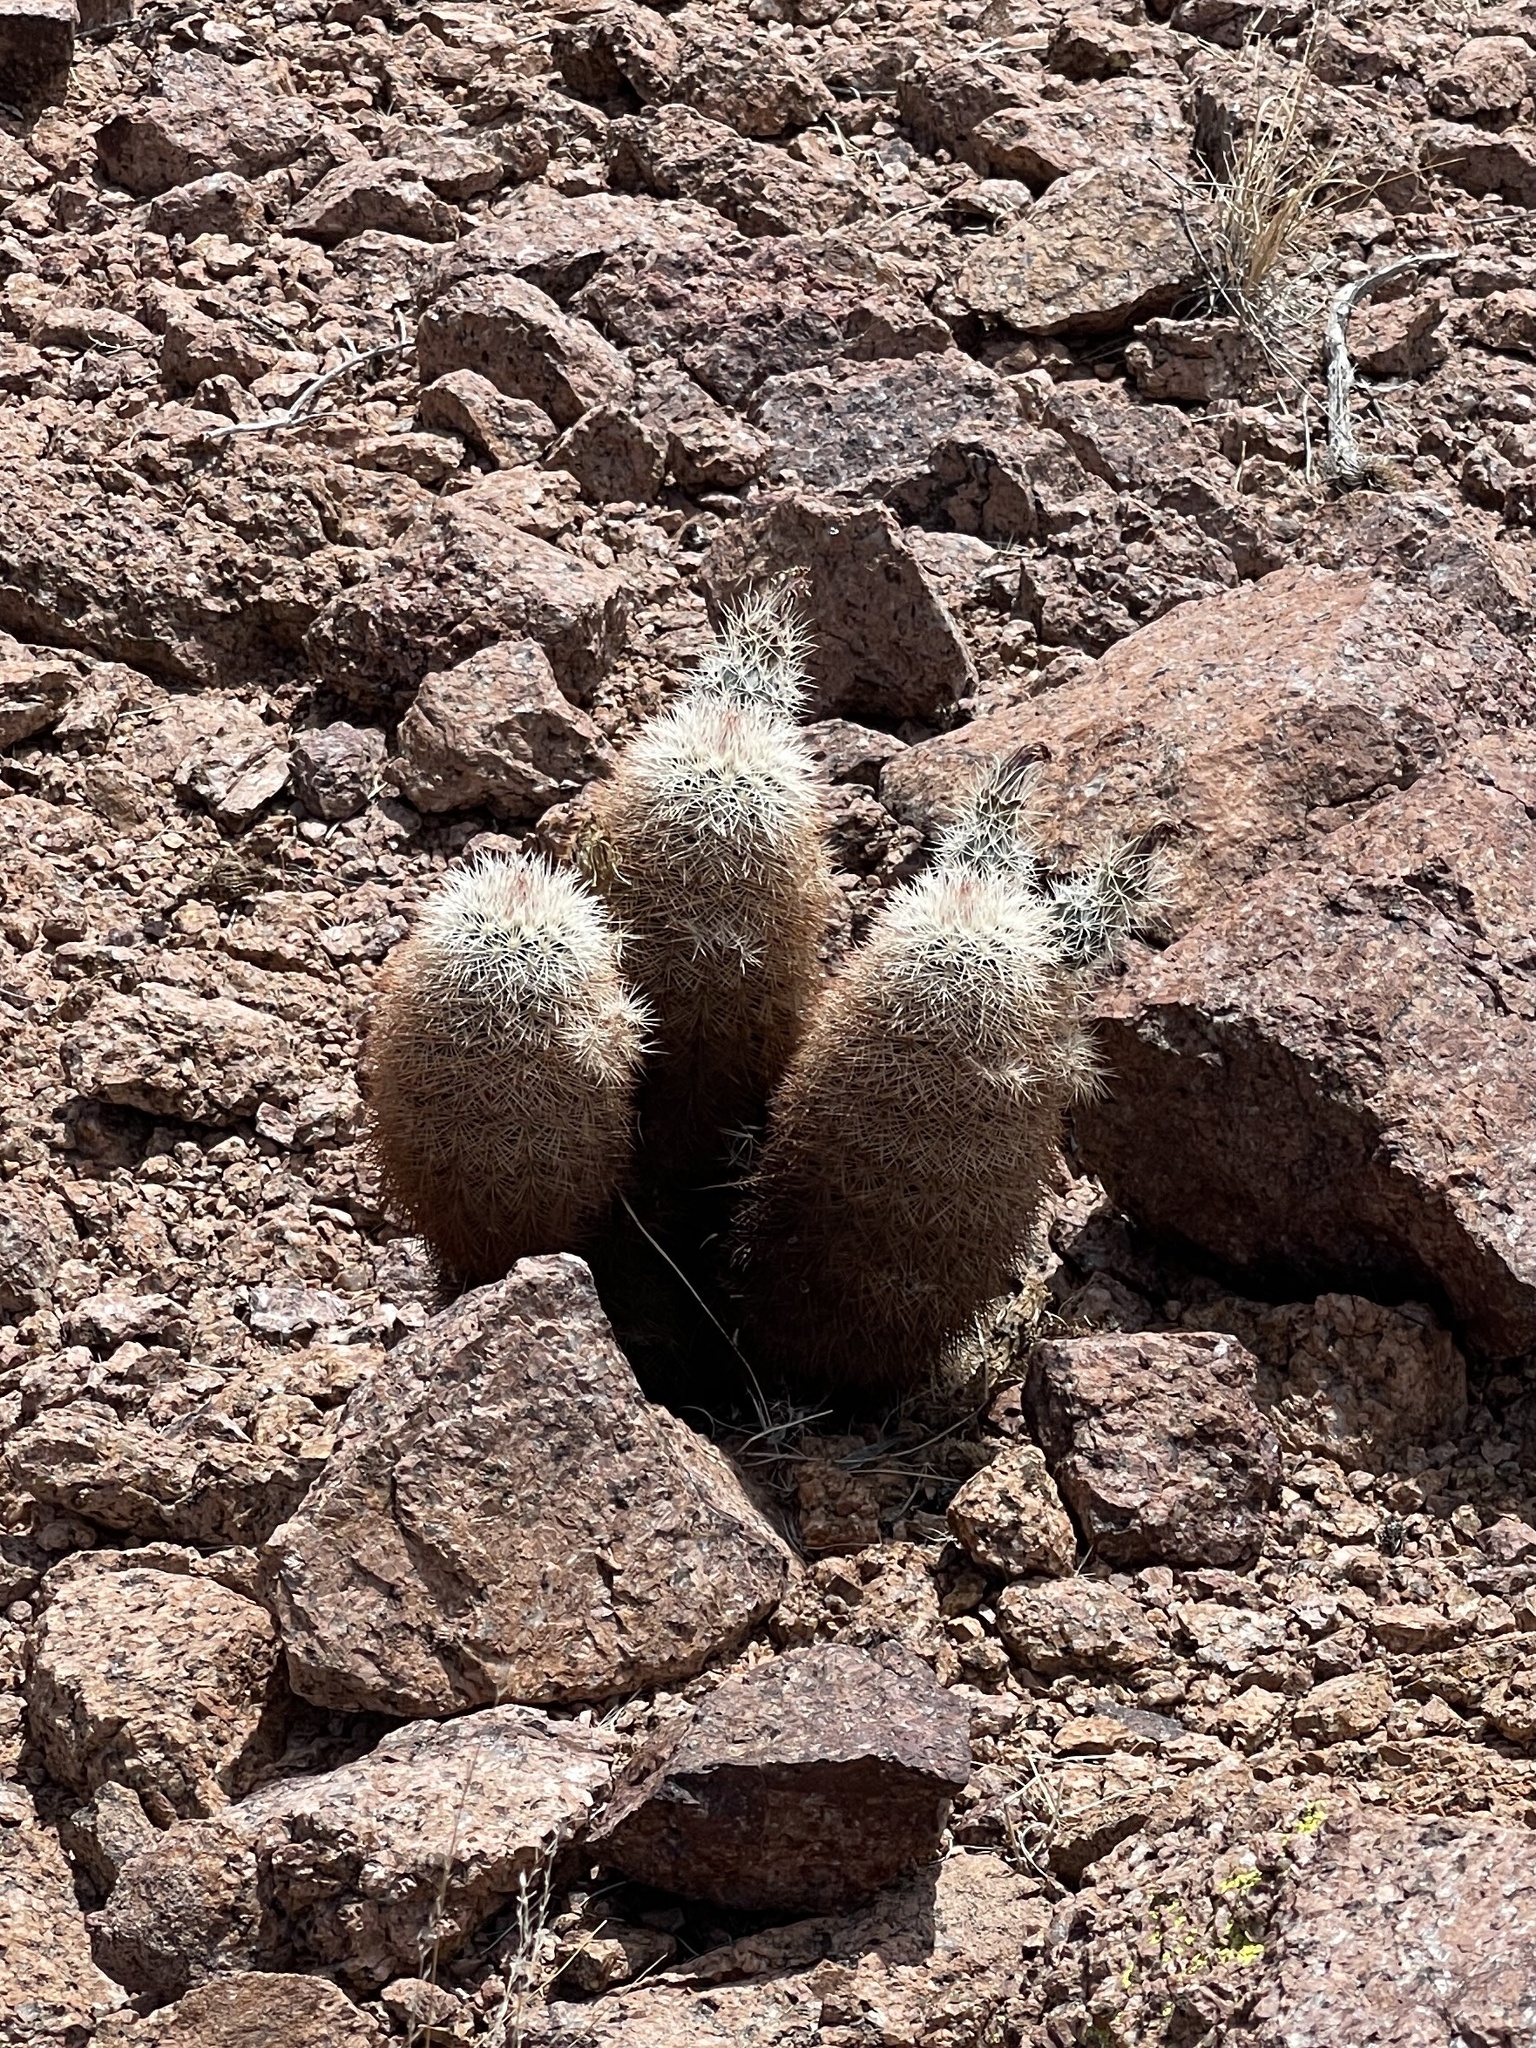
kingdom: Plantae
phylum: Tracheophyta
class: Magnoliopsida
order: Caryophyllales
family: Cactaceae
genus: Echinocereus
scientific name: Echinocereus dasyacanthus
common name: Spiny hedgehog cactus
